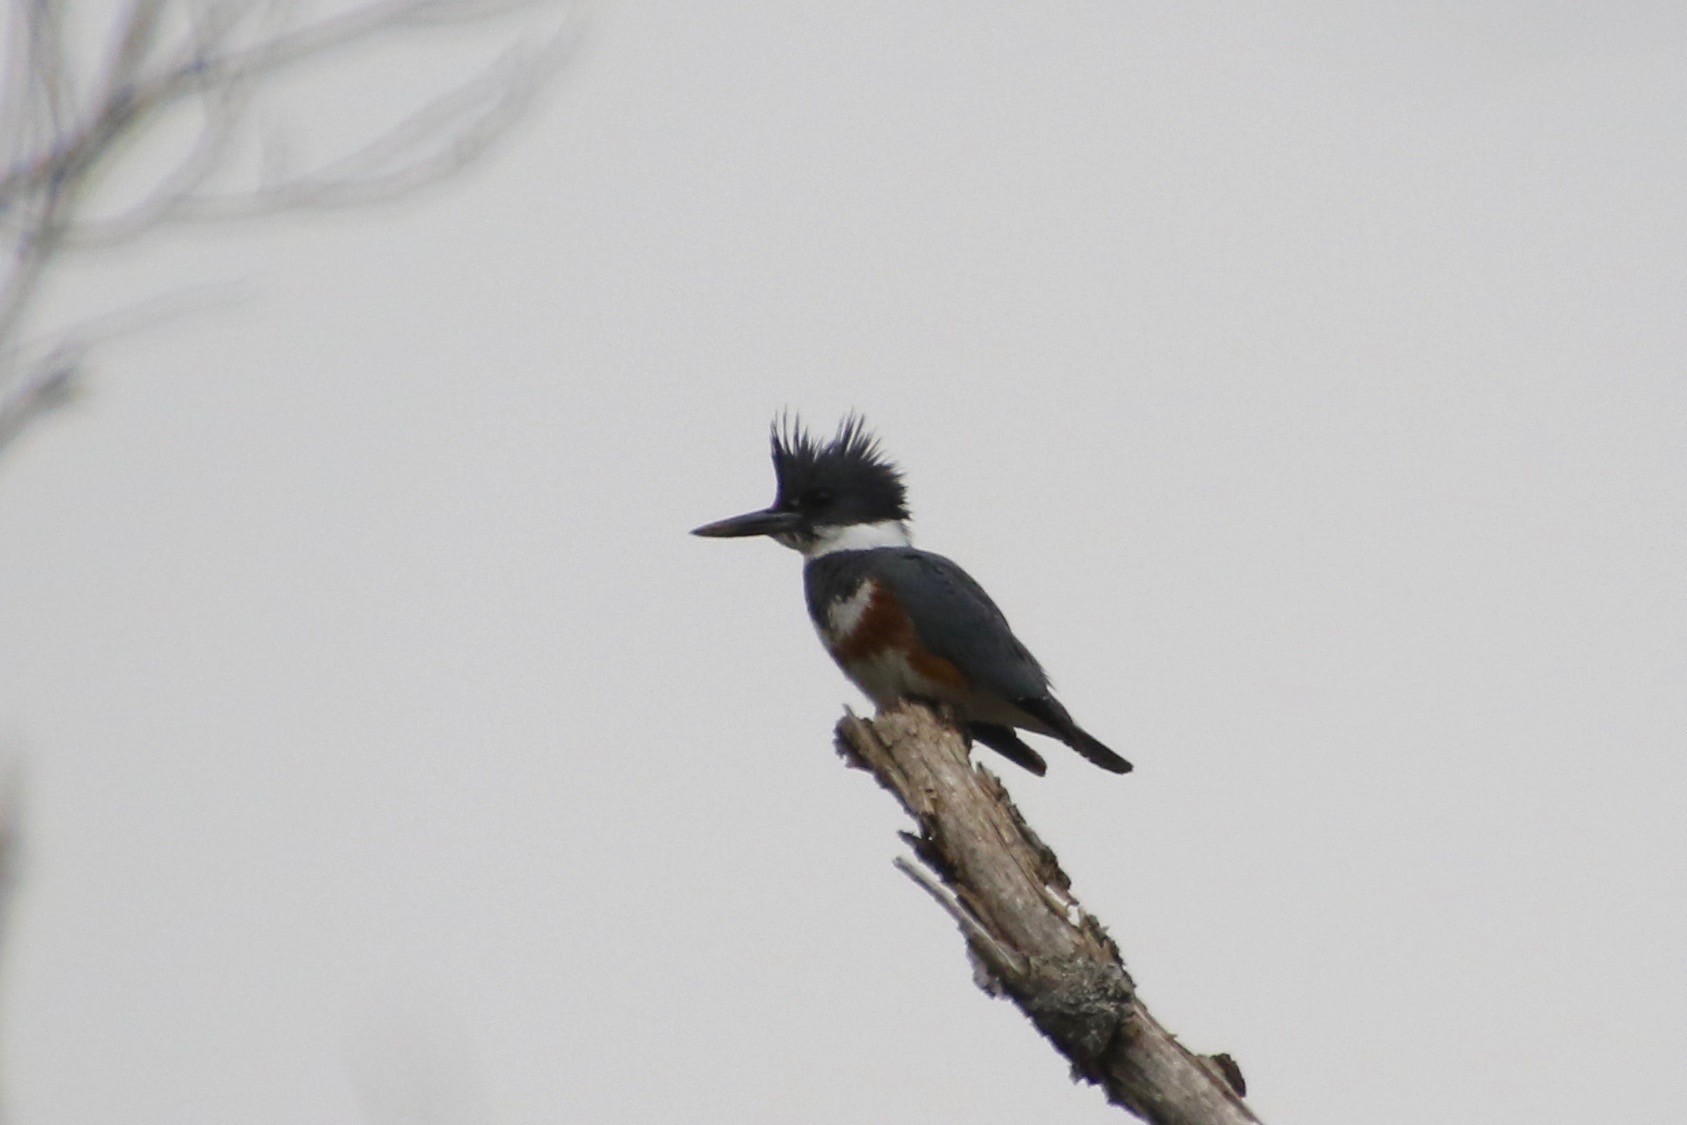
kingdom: Animalia
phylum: Chordata
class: Aves
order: Coraciiformes
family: Alcedinidae
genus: Megaceryle
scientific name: Megaceryle alcyon
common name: Belted kingfisher
